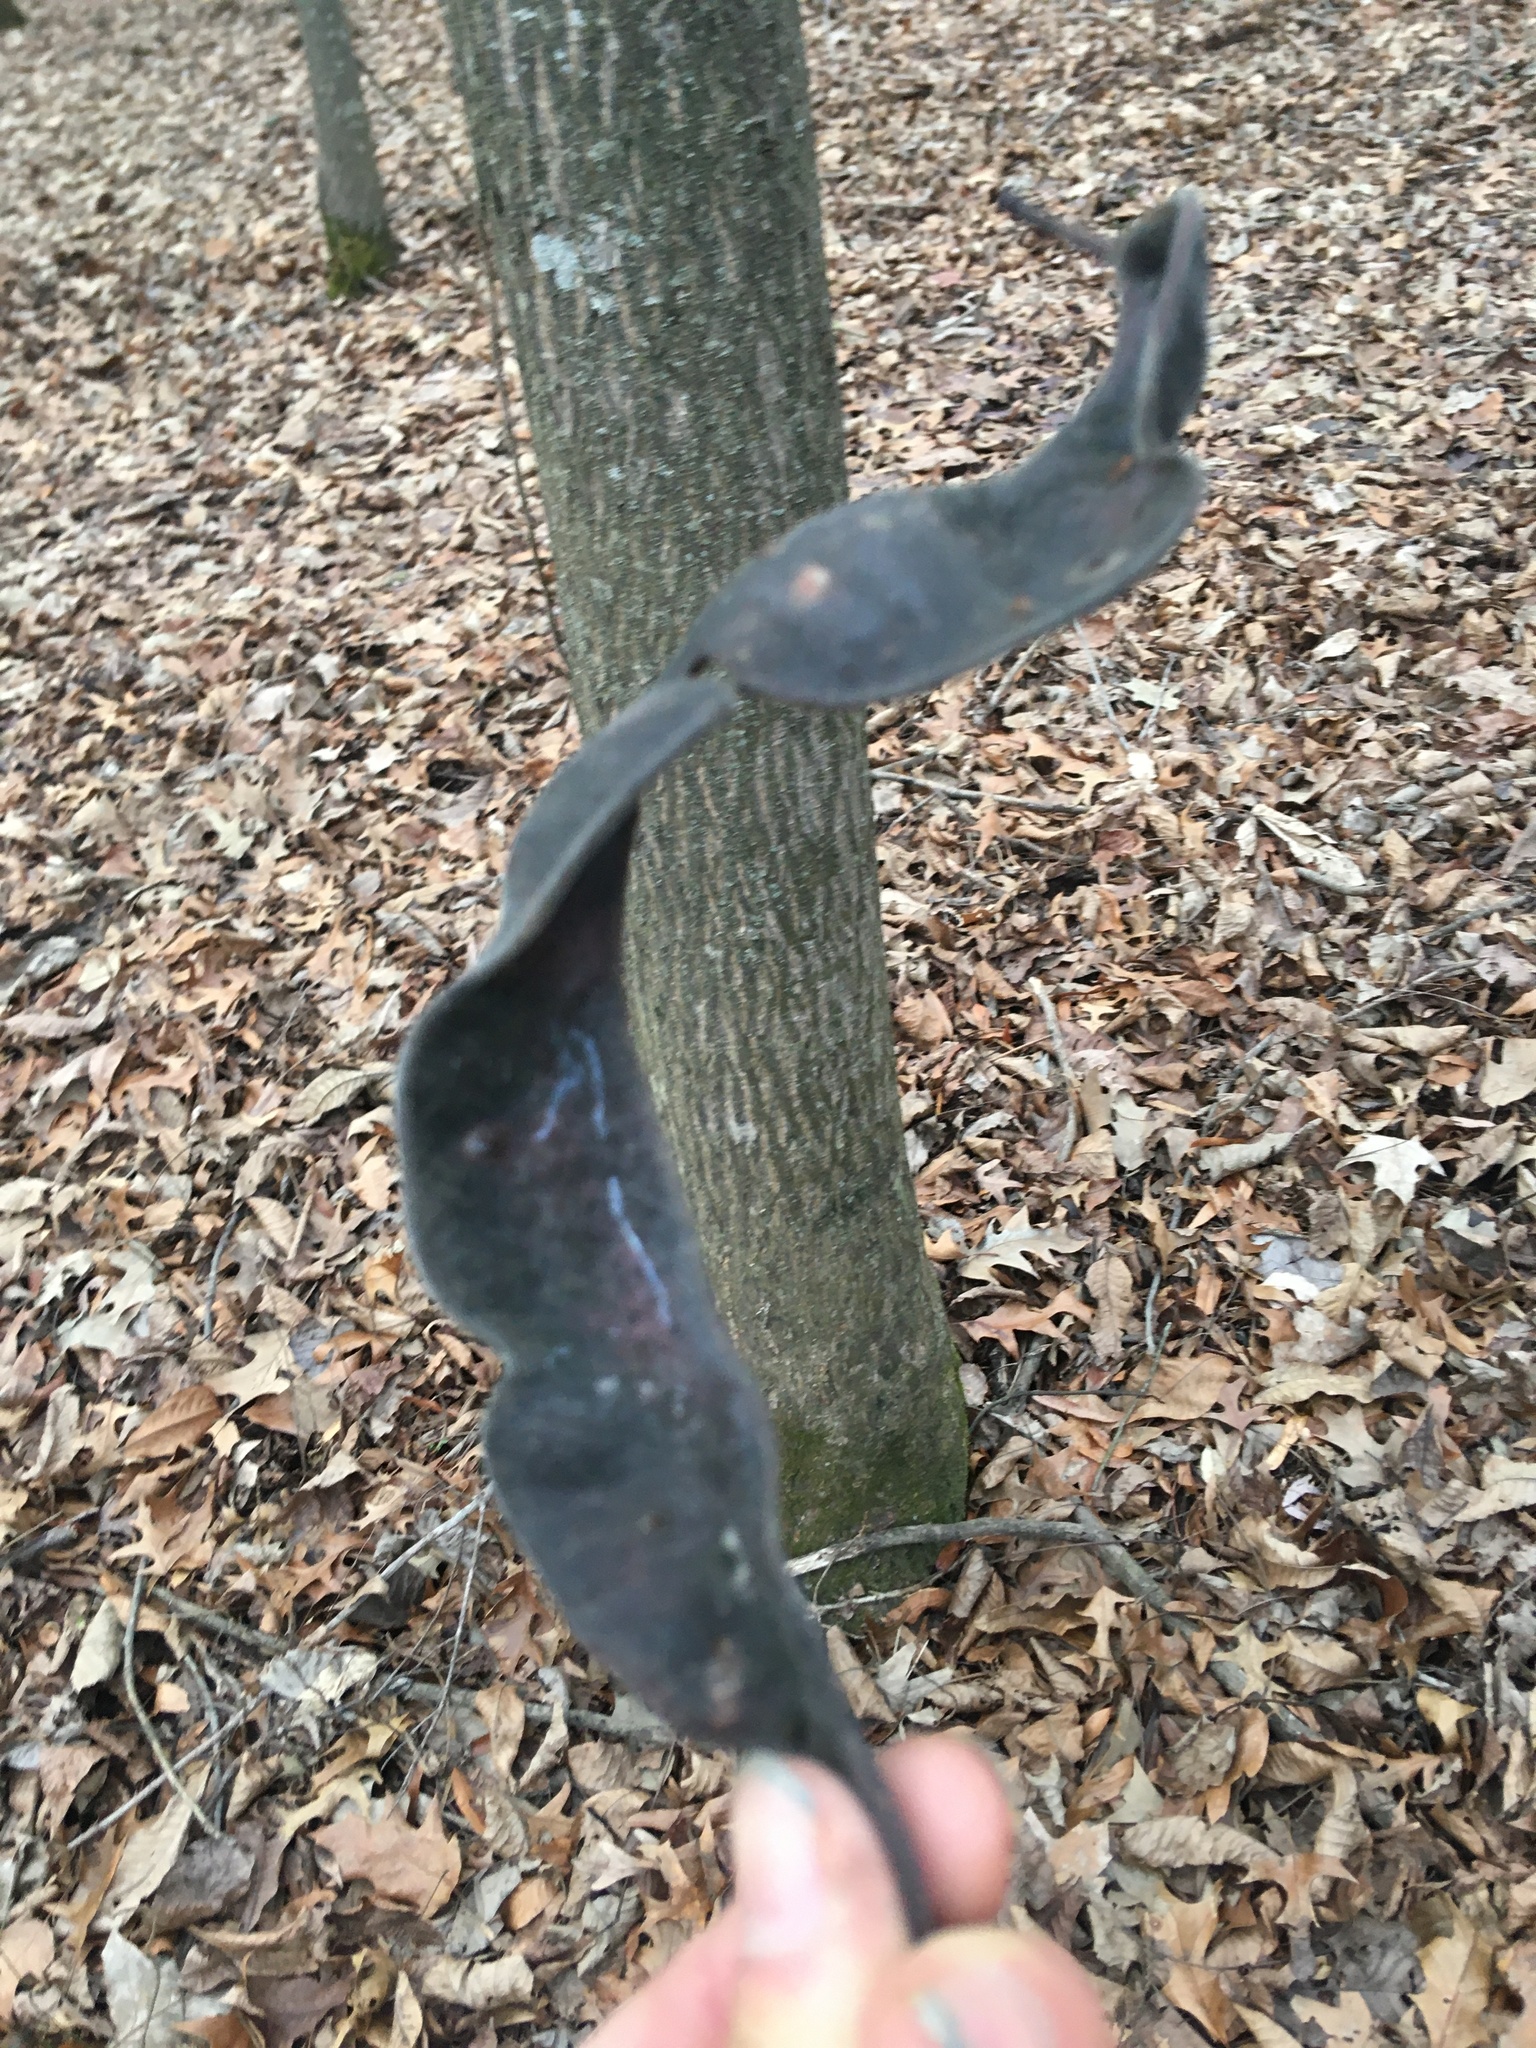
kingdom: Plantae
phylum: Tracheophyta
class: Magnoliopsida
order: Fabales
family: Fabaceae
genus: Gleditsia
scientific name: Gleditsia triacanthos
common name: Common honeylocust
